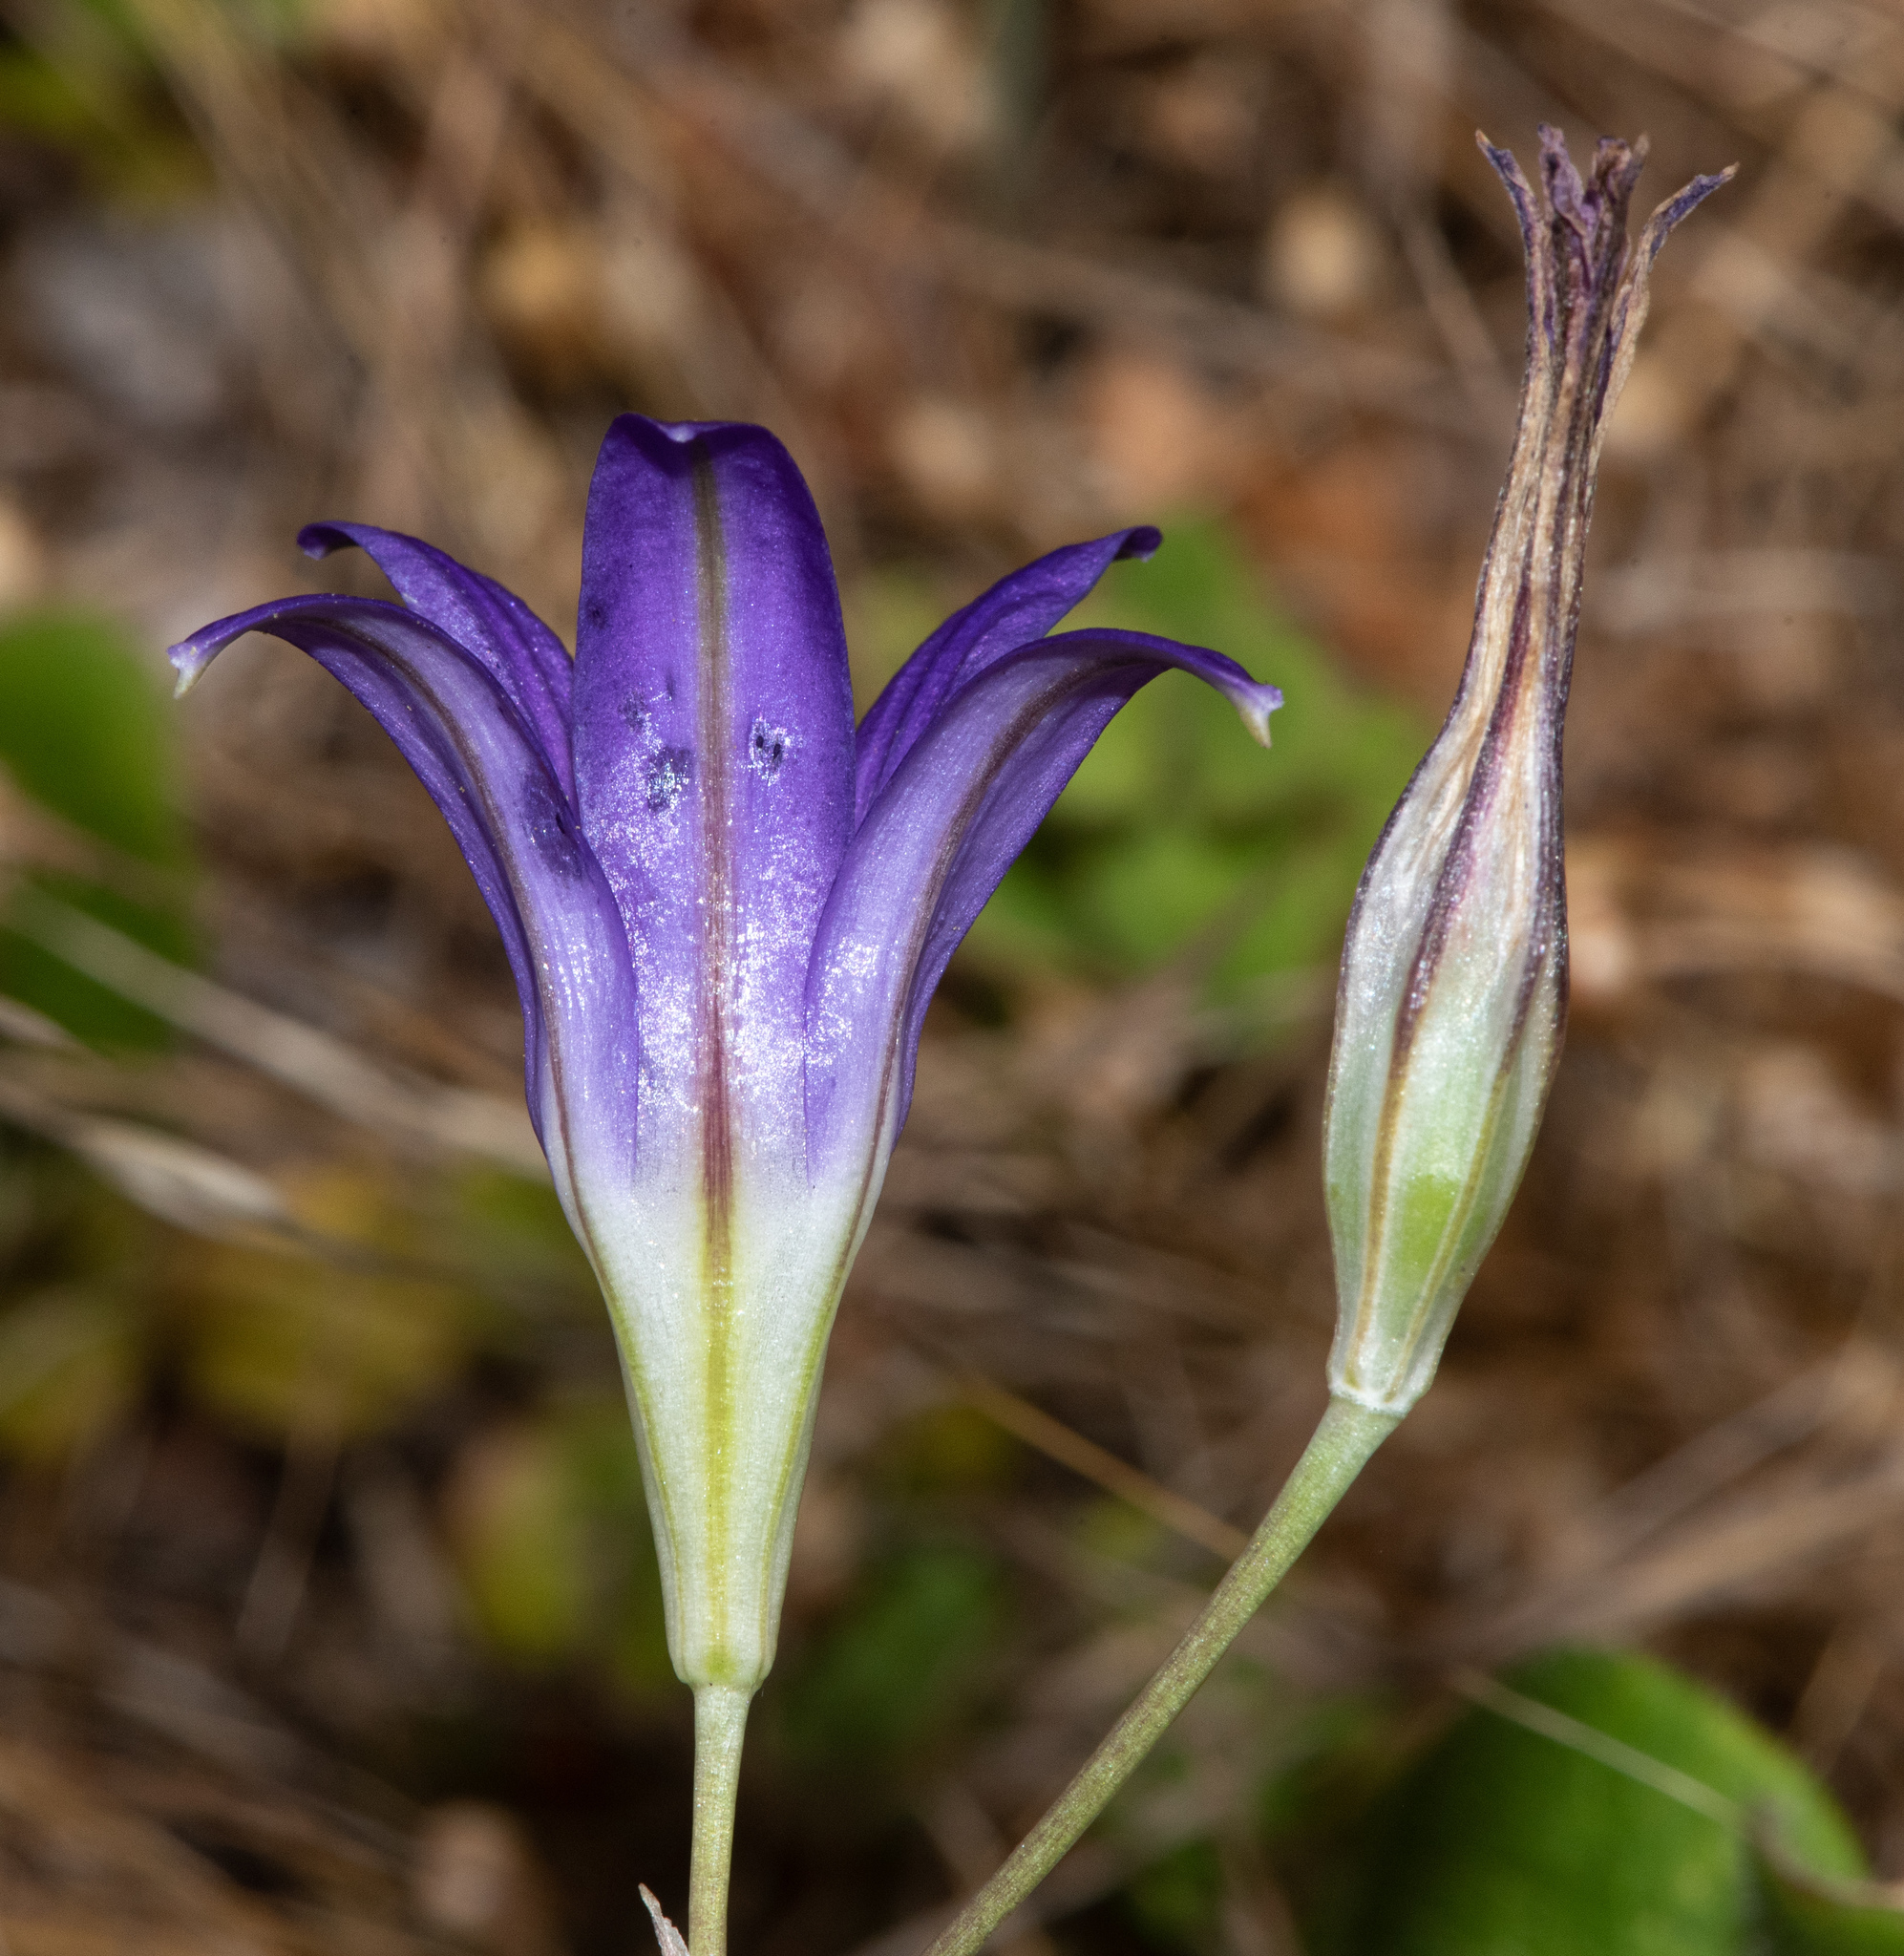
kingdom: Plantae
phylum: Tracheophyta
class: Liliopsida
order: Asparagales
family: Asparagaceae
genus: Brodiaea
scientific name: Brodiaea elegans
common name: Elegant cluster-lily
